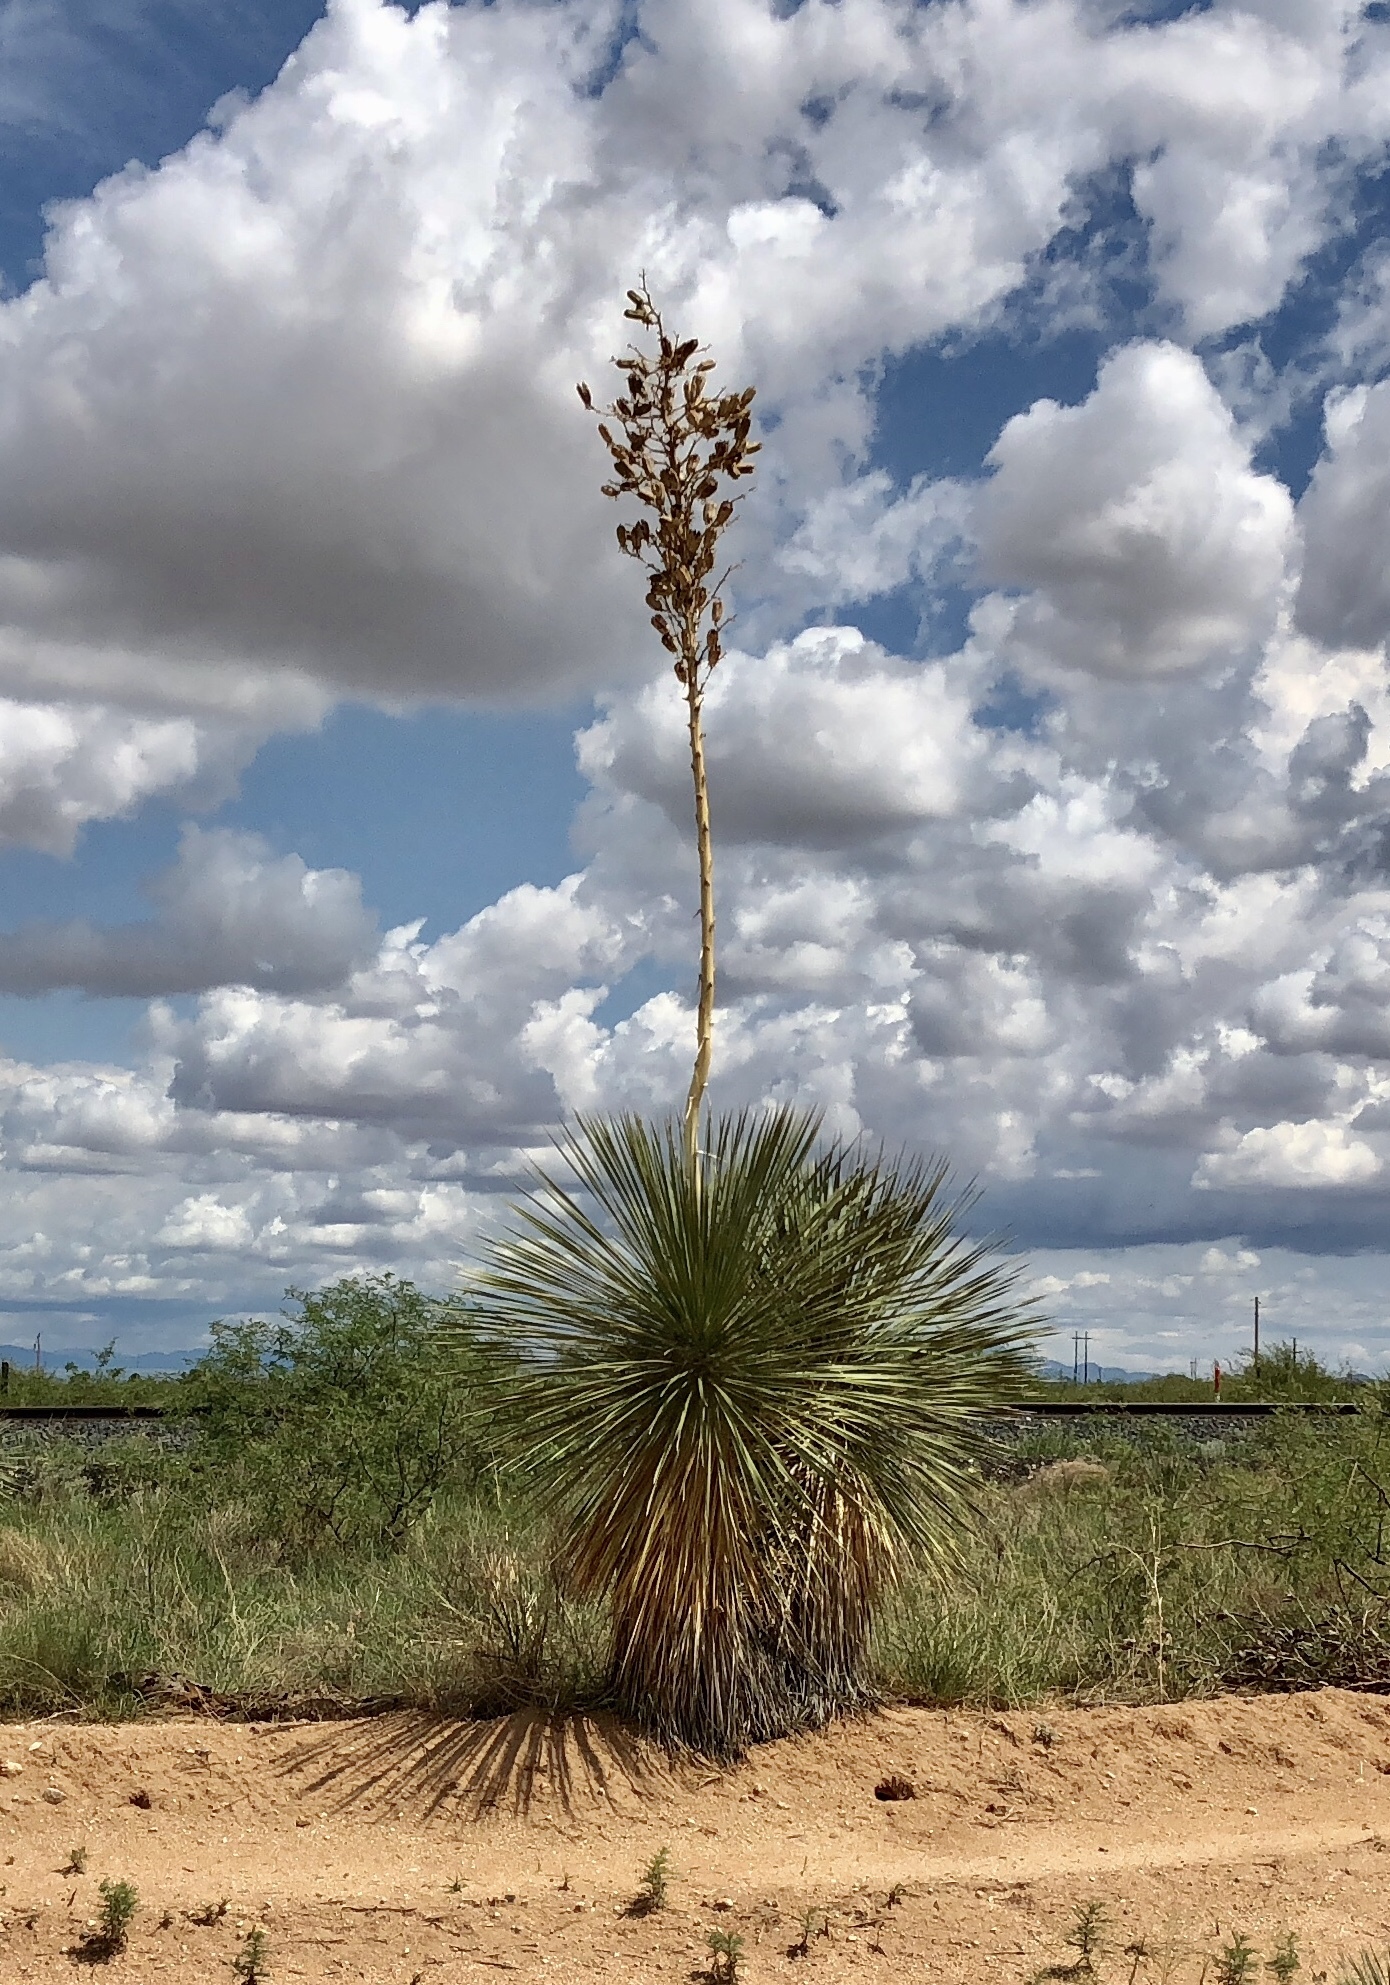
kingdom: Plantae
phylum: Tracheophyta
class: Liliopsida
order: Asparagales
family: Asparagaceae
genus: Yucca
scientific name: Yucca elata
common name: Palmella
